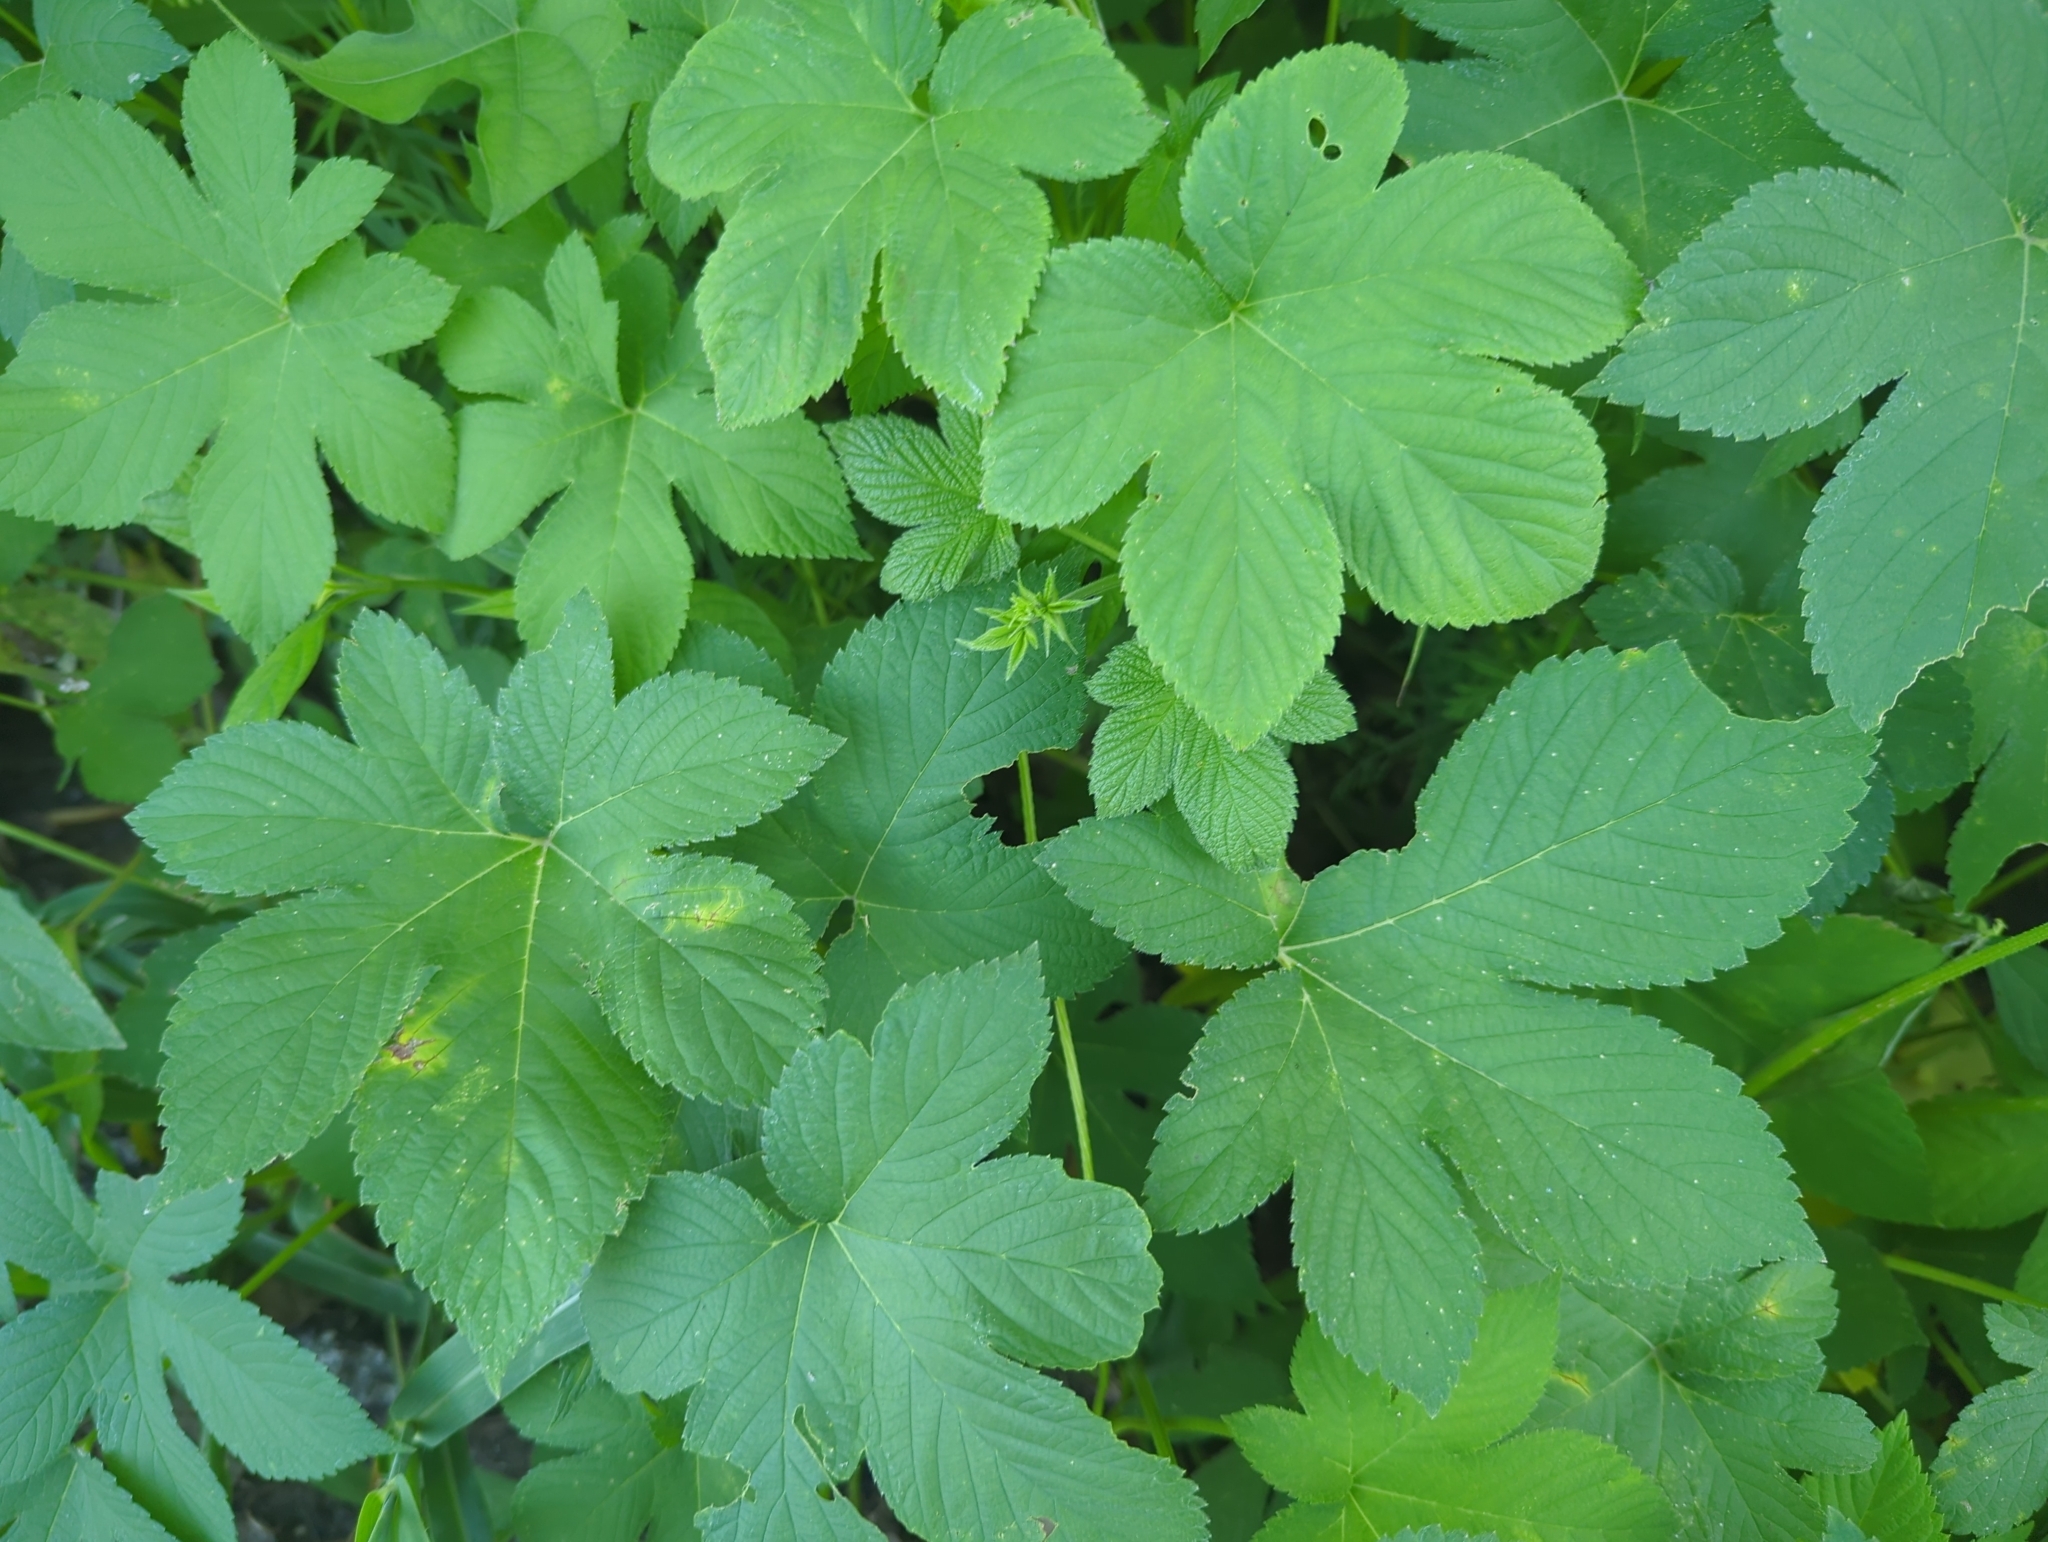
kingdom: Plantae
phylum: Tracheophyta
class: Magnoliopsida
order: Rosales
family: Cannabaceae
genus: Humulus
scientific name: Humulus scandens
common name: Japanese hop
